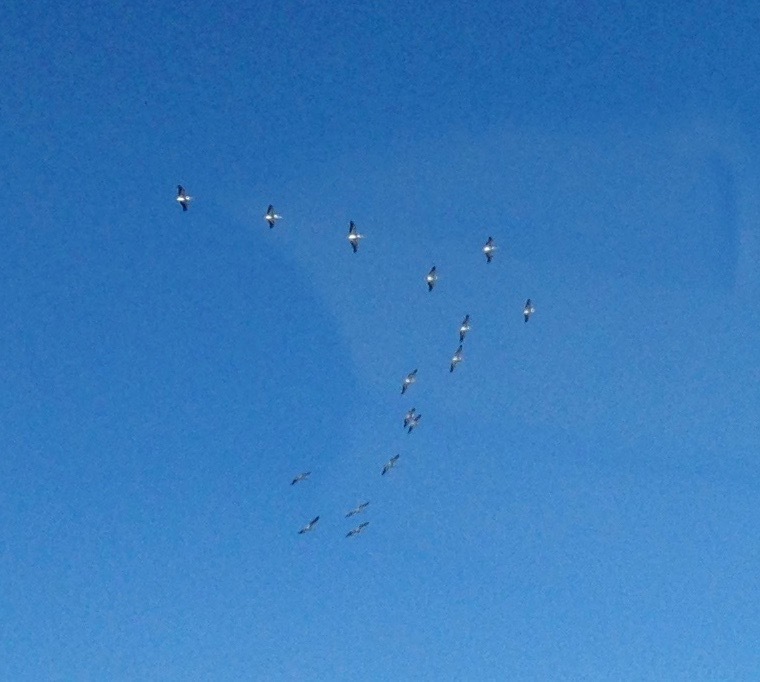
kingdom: Animalia
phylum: Chordata
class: Aves
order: Pelecaniformes
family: Pelecanidae
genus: Pelecanus
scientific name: Pelecanus erythrorhynchos
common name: American white pelican
